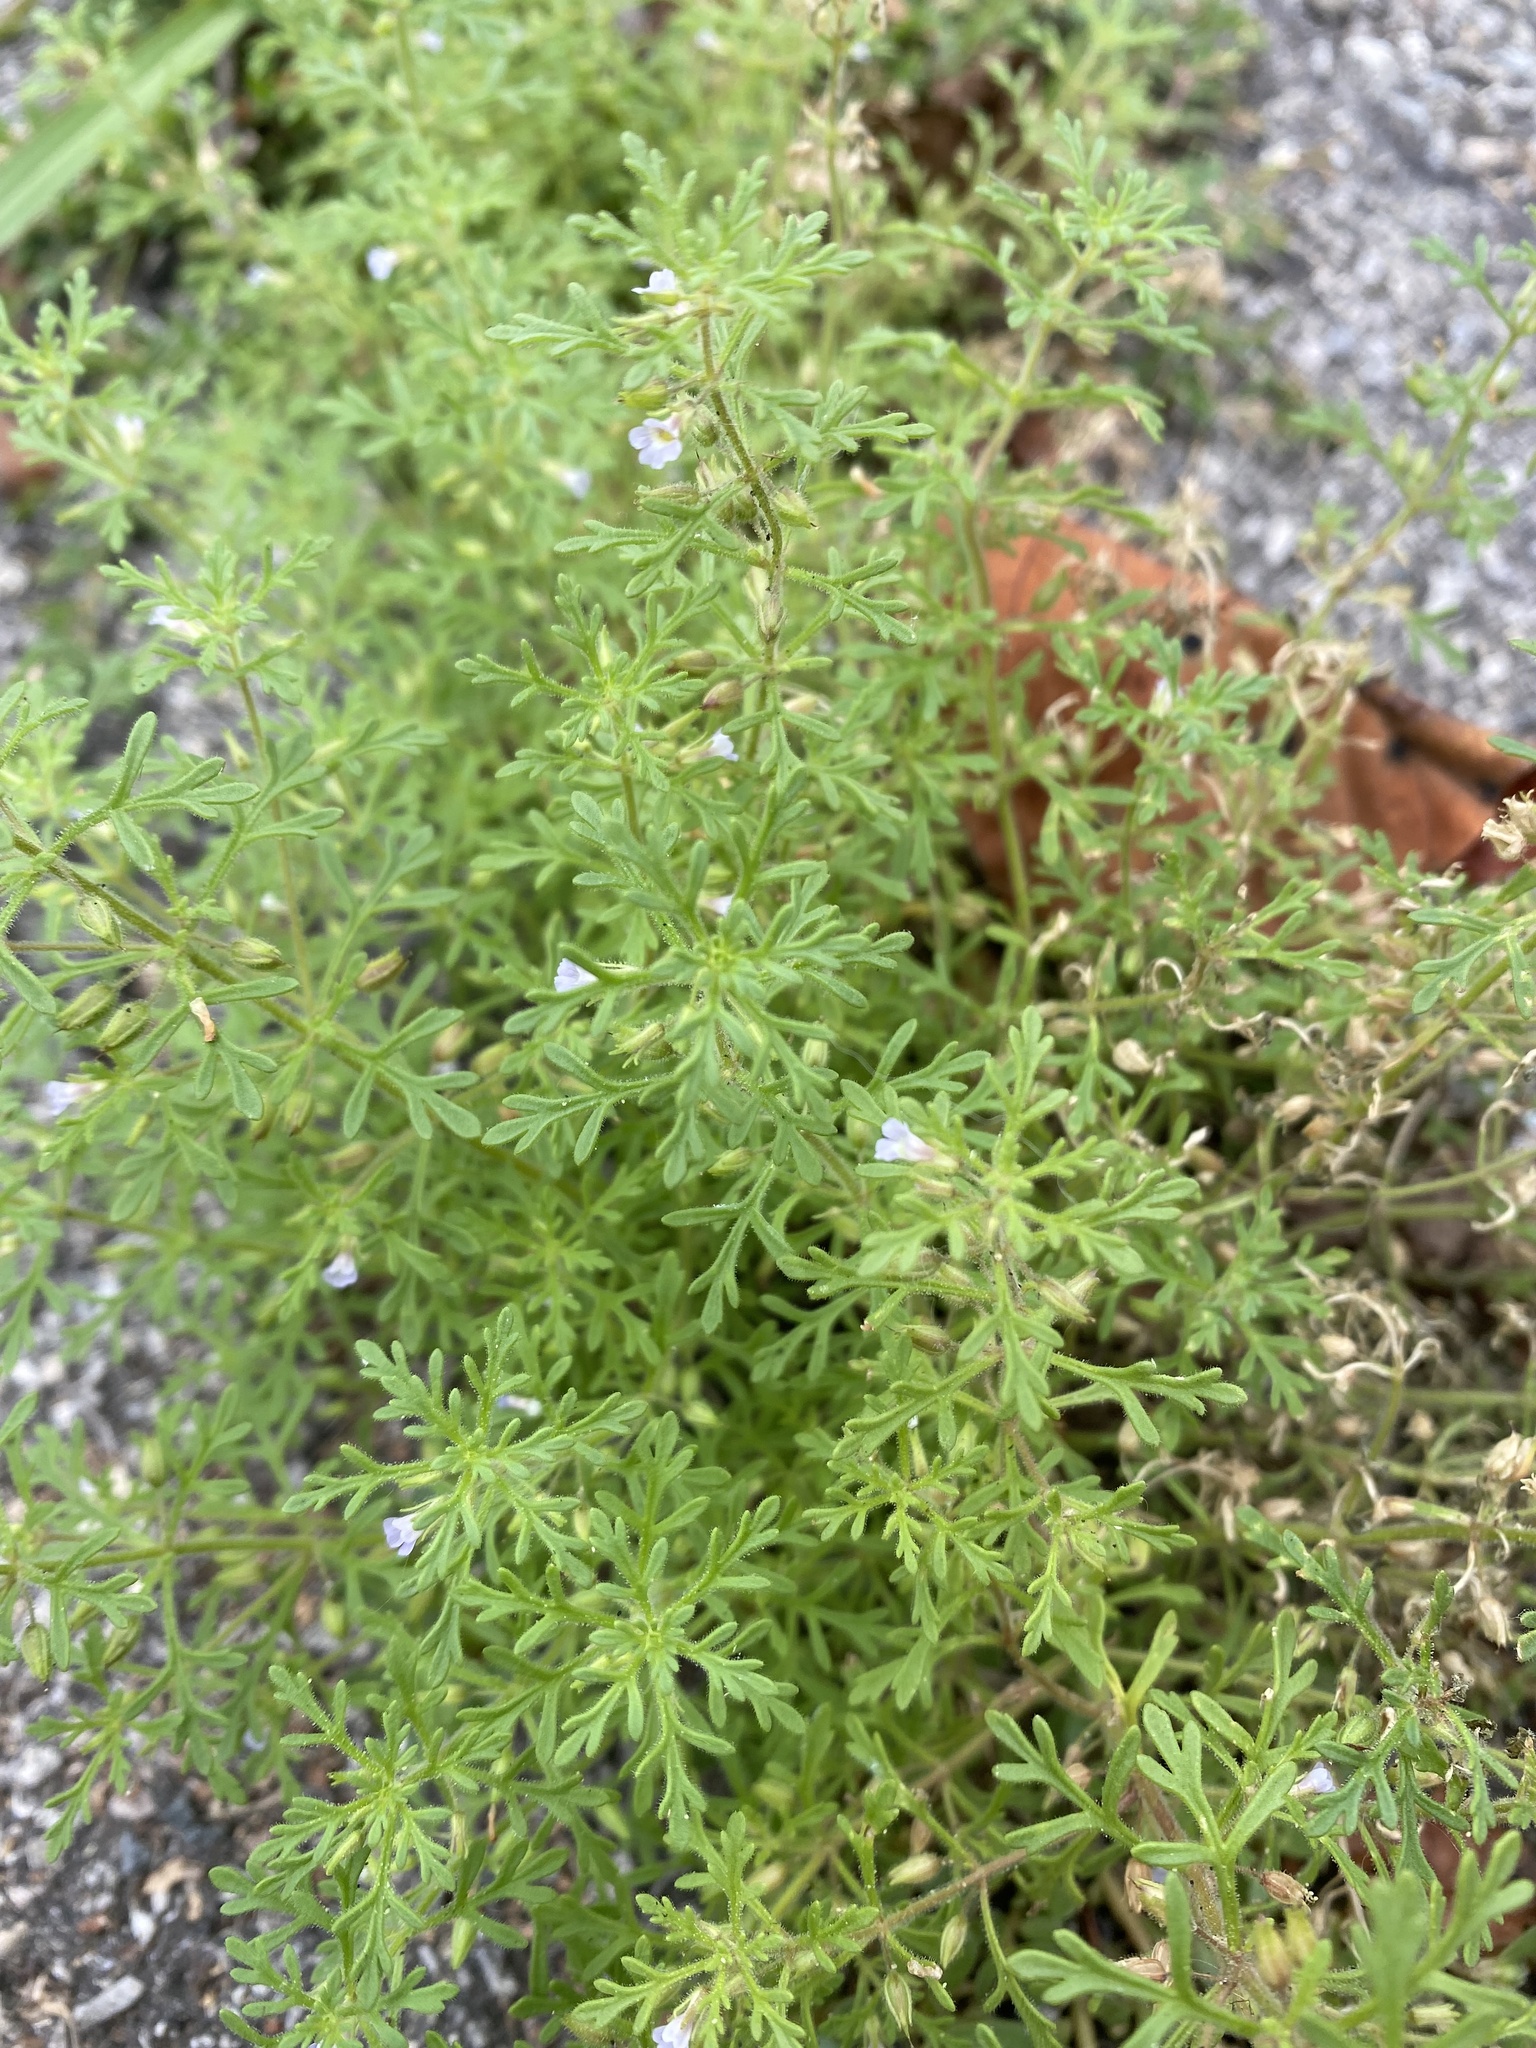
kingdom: Plantae
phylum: Tracheophyta
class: Magnoliopsida
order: Lamiales
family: Plantaginaceae
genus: Leucospora
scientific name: Leucospora multifida
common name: Narrow-leaf paleseed
